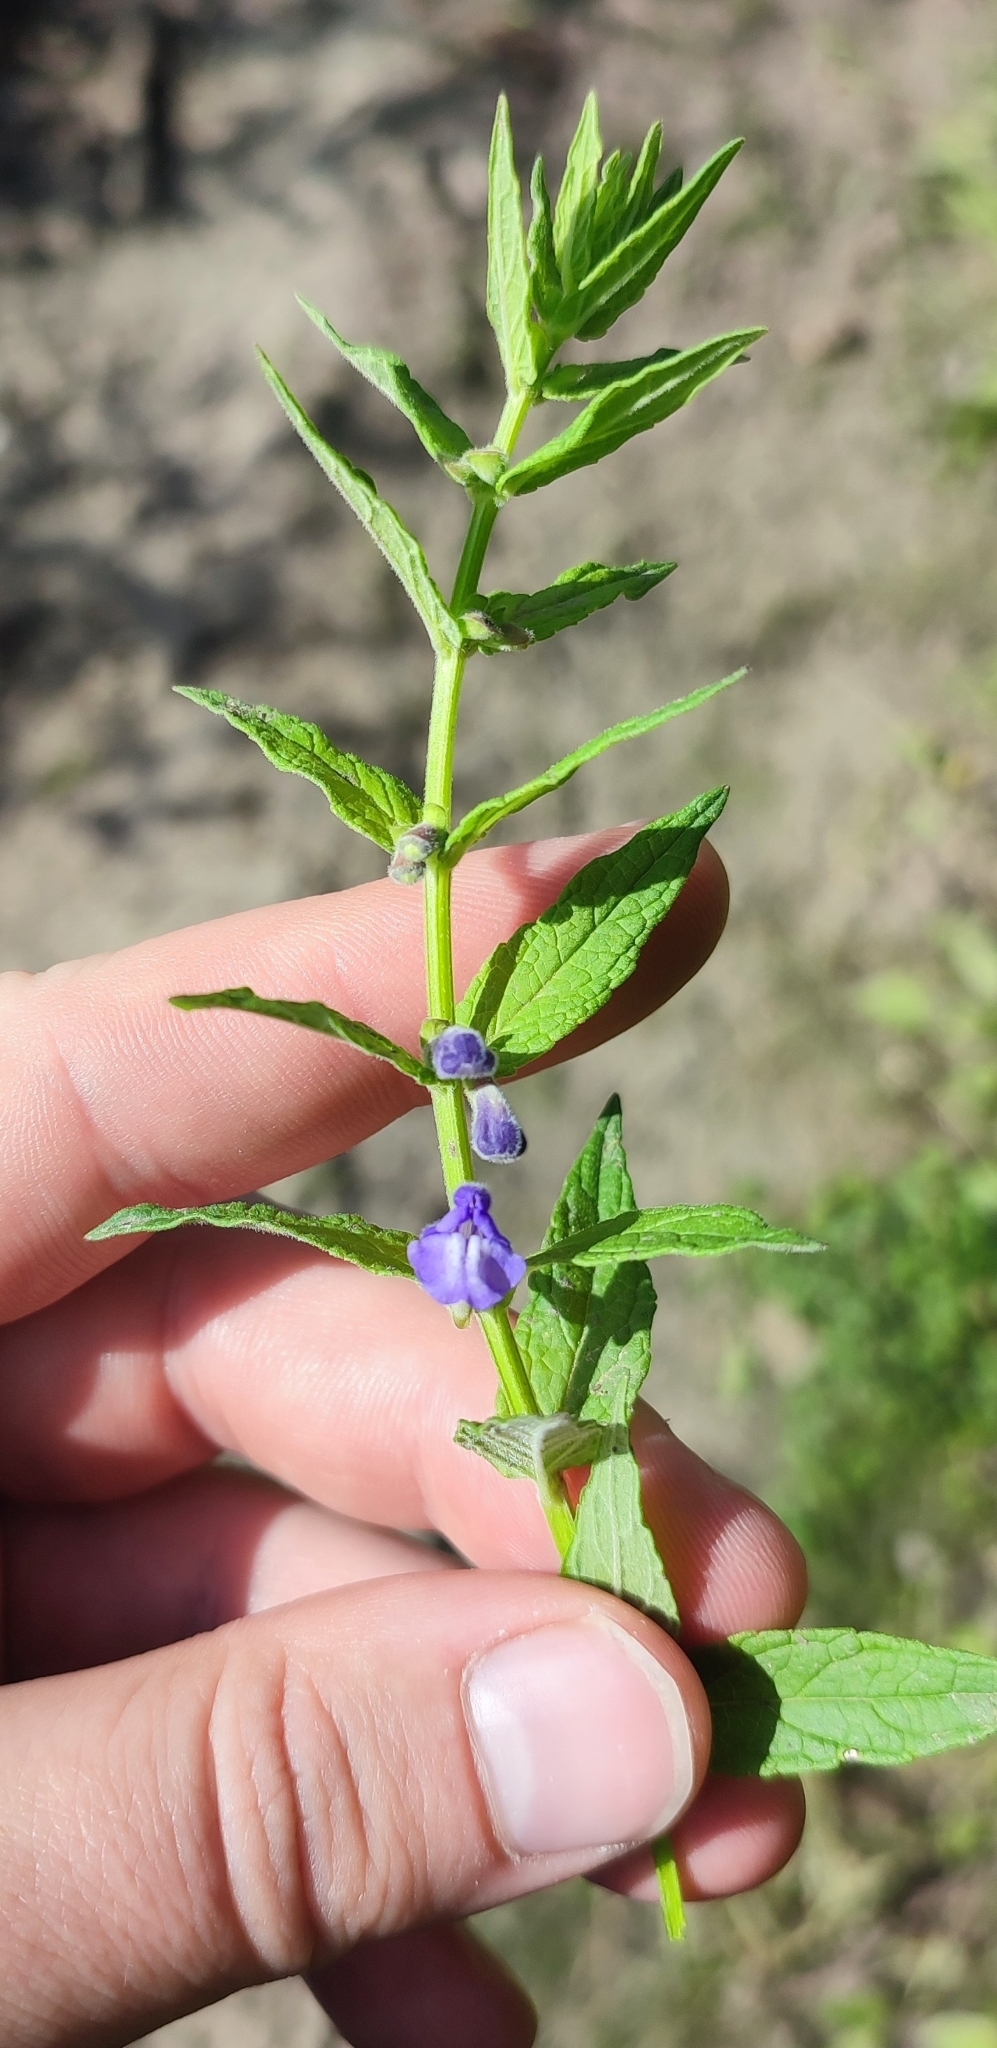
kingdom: Plantae
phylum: Tracheophyta
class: Magnoliopsida
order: Lamiales
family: Lamiaceae
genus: Scutellaria
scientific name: Scutellaria galericulata
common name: Skullcap
